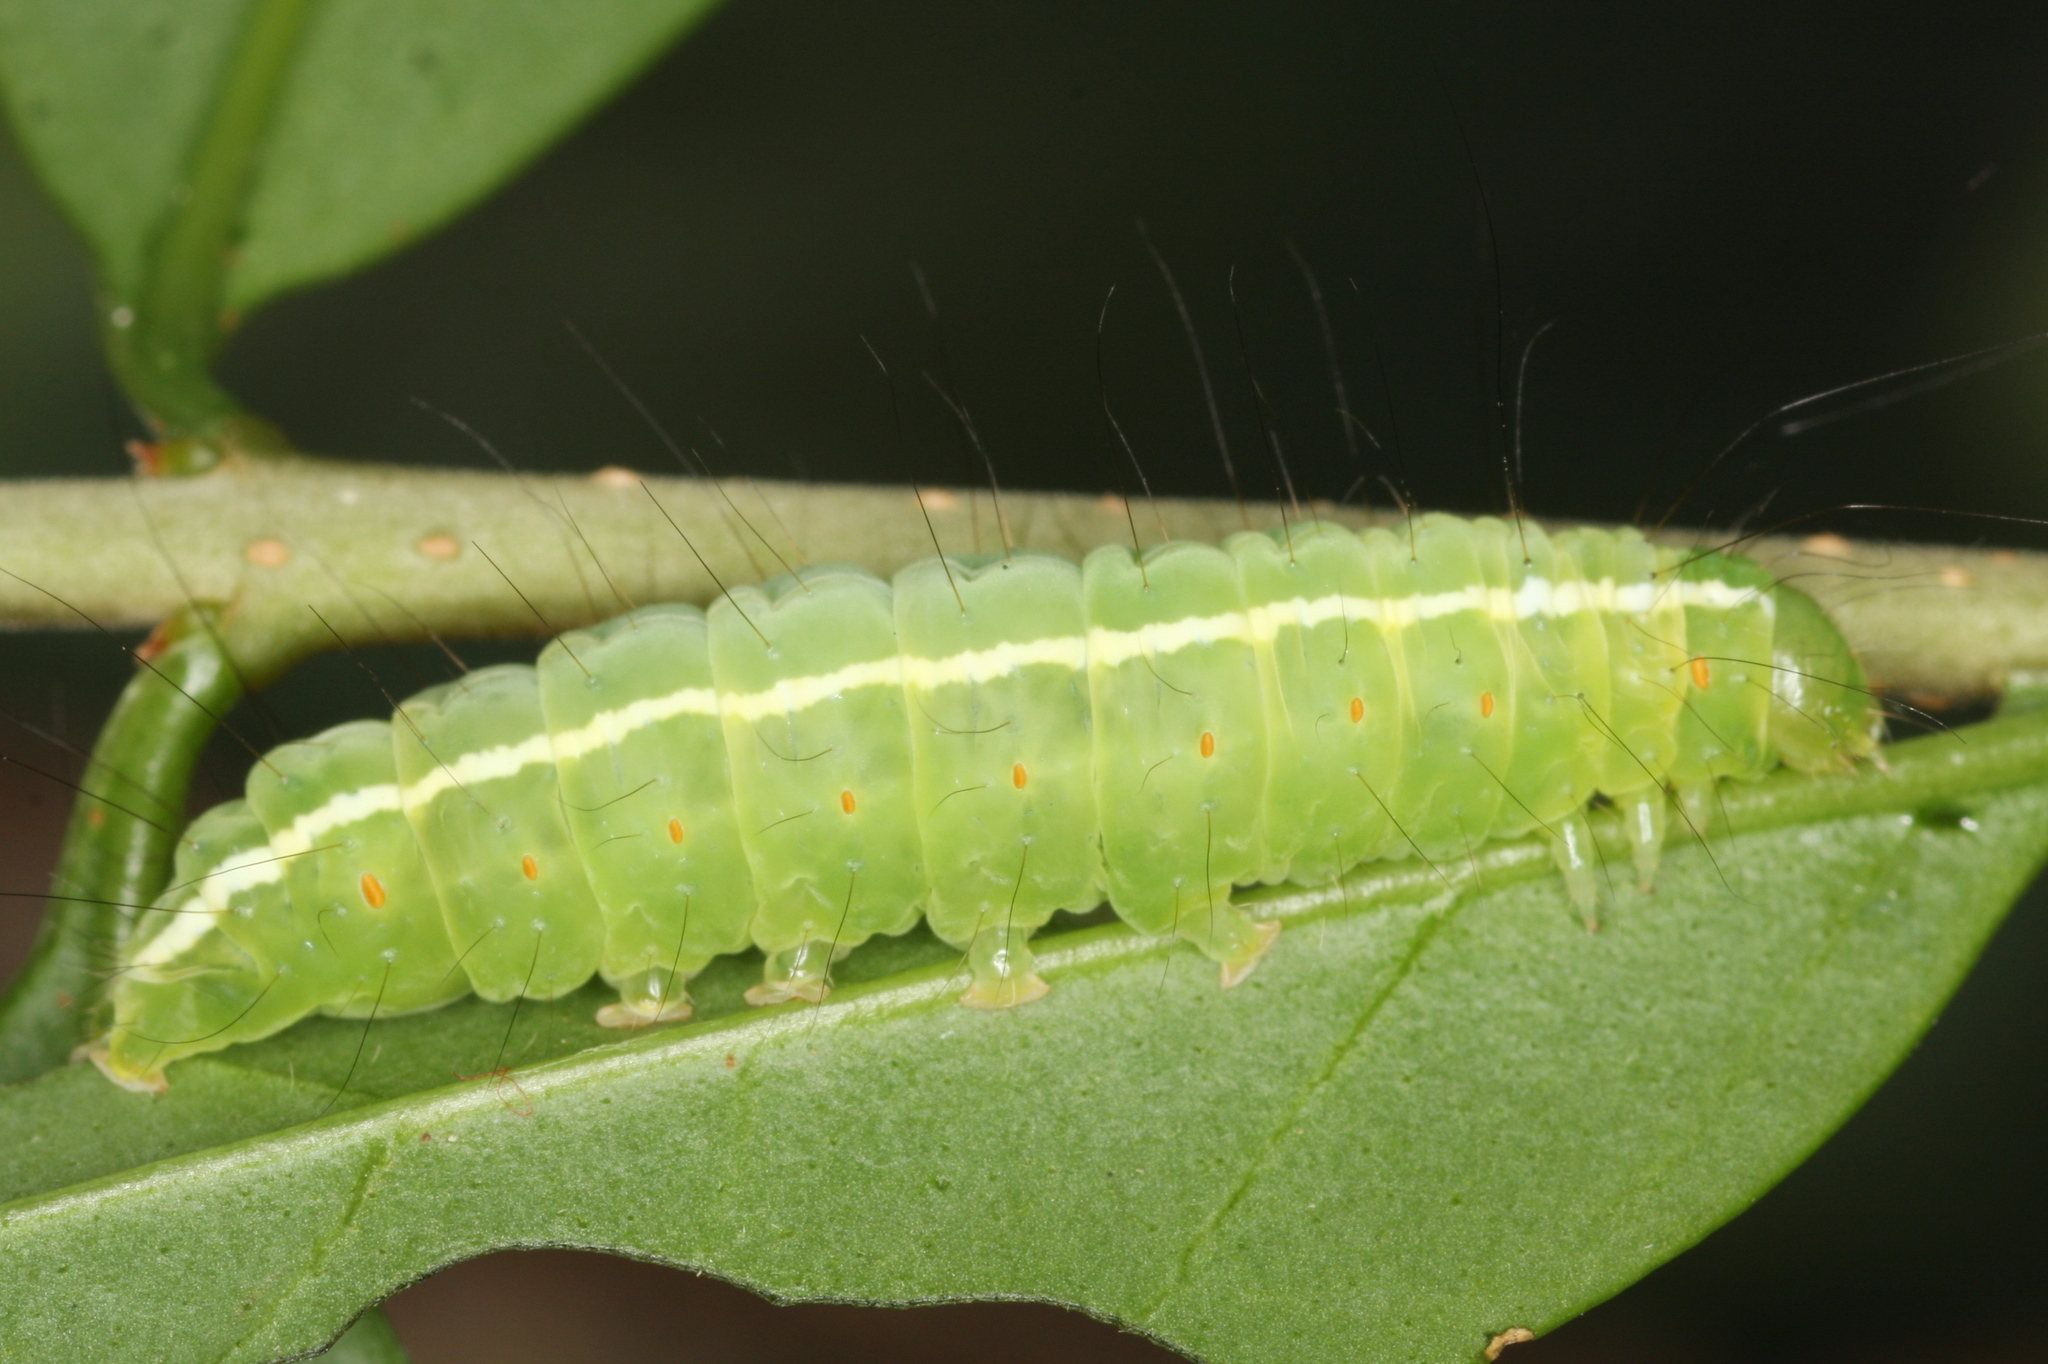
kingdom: Animalia
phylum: Arthropoda
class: Insecta
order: Lepidoptera
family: Noctuidae
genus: Craniophora
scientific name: Craniophora ligustri
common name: Coronet
